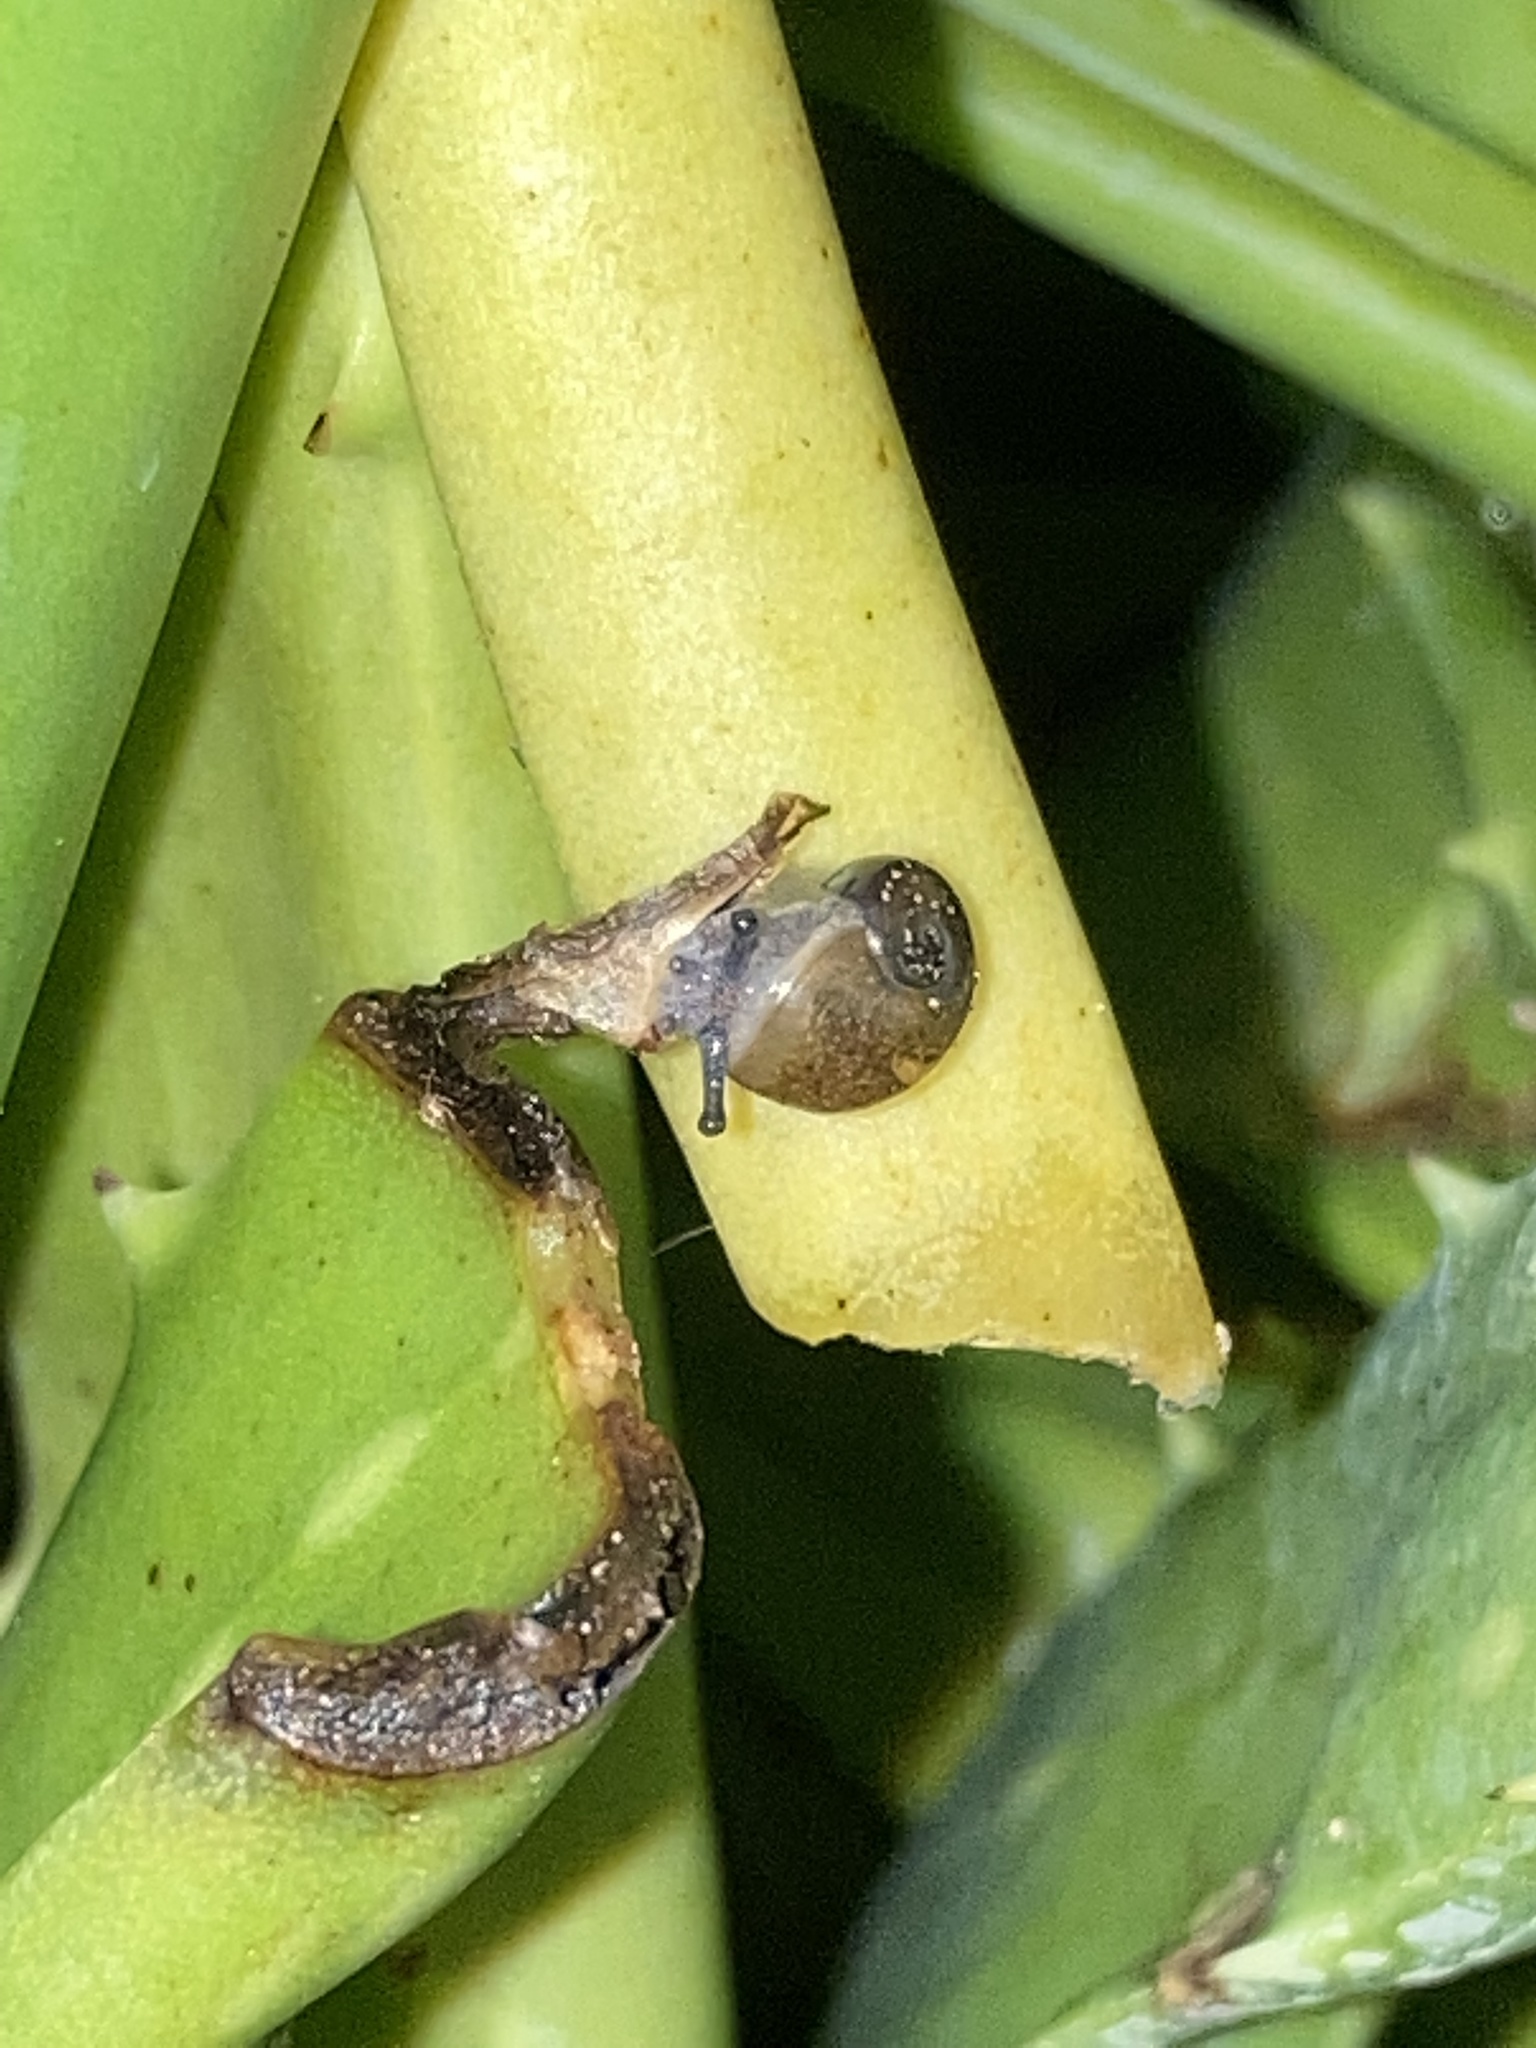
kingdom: Animalia
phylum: Mollusca
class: Gastropoda
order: Stylommatophora
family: Zachrysiidae
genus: Zachrysia
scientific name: Zachrysia provisoria
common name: Garden zachrysia
